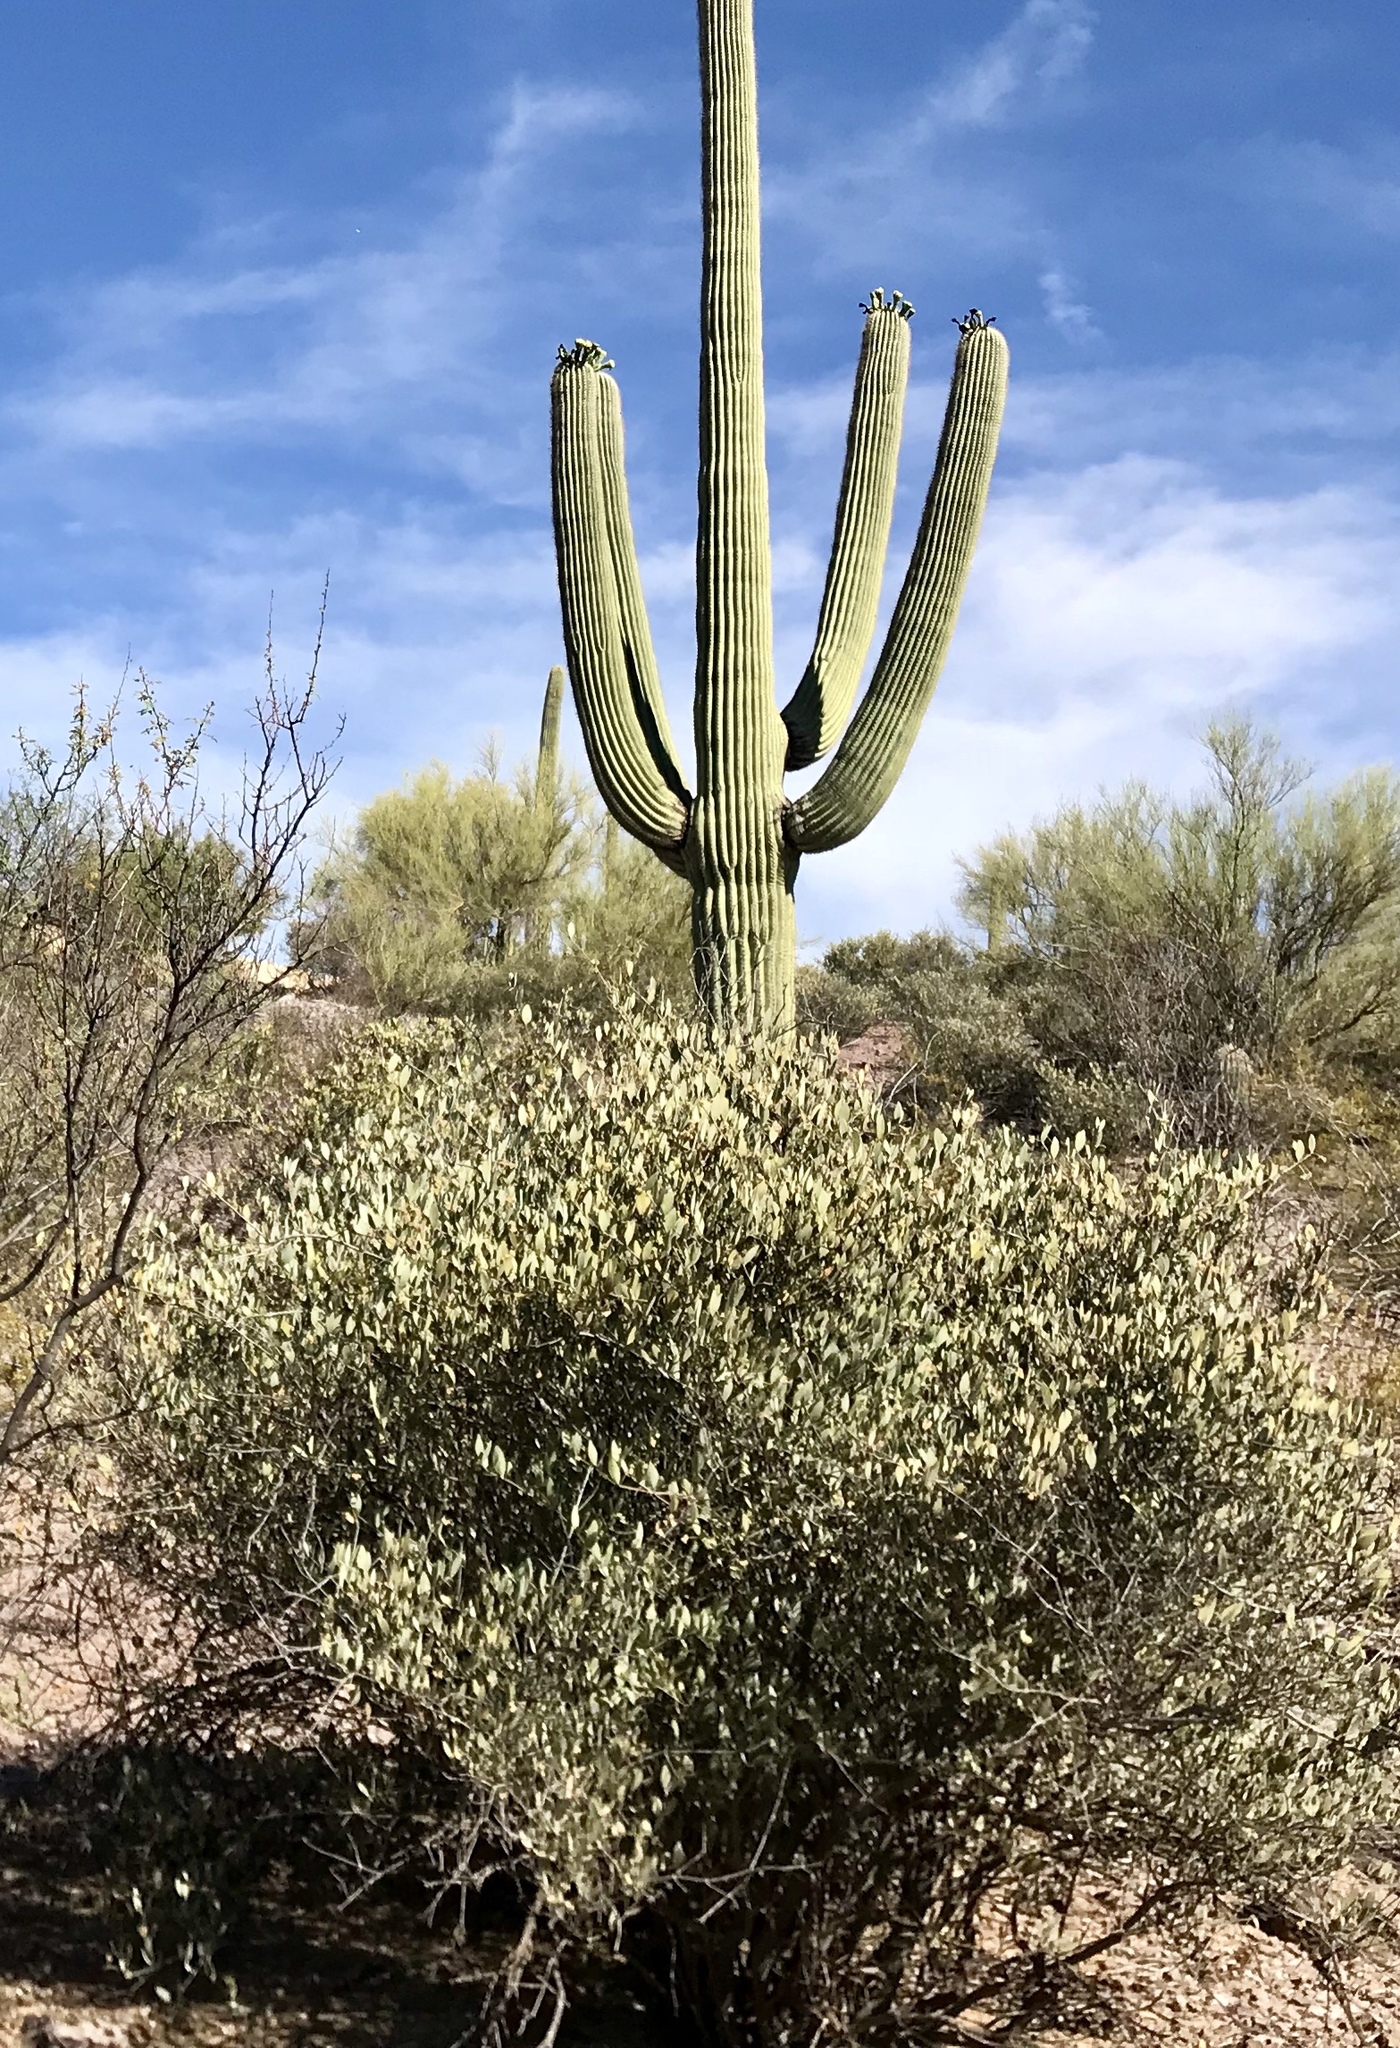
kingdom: Plantae
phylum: Tracheophyta
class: Magnoliopsida
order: Caryophyllales
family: Simmondsiaceae
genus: Simmondsia
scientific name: Simmondsia chinensis
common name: Jojoba
